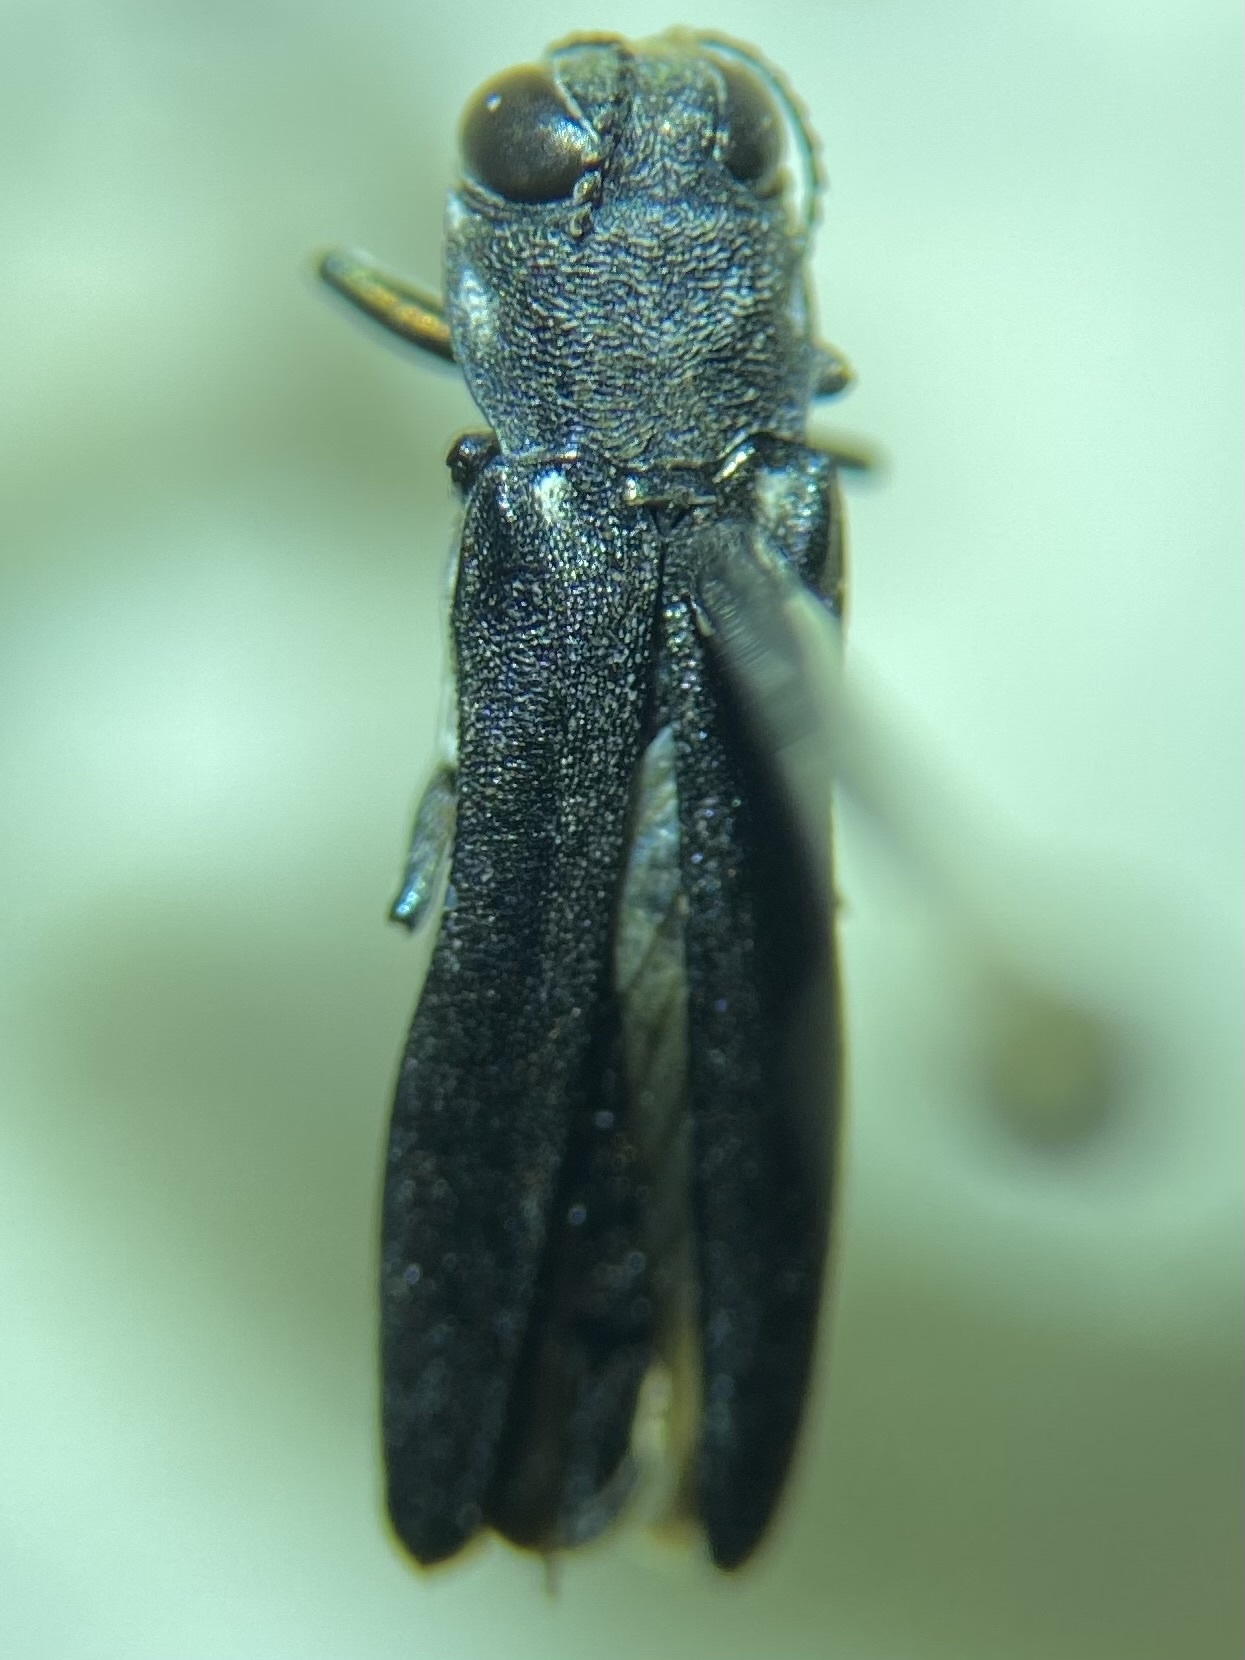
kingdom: Animalia
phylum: Arthropoda
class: Insecta
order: Coleoptera
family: Buprestidae
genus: Agrilus
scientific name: Agrilus carpini
